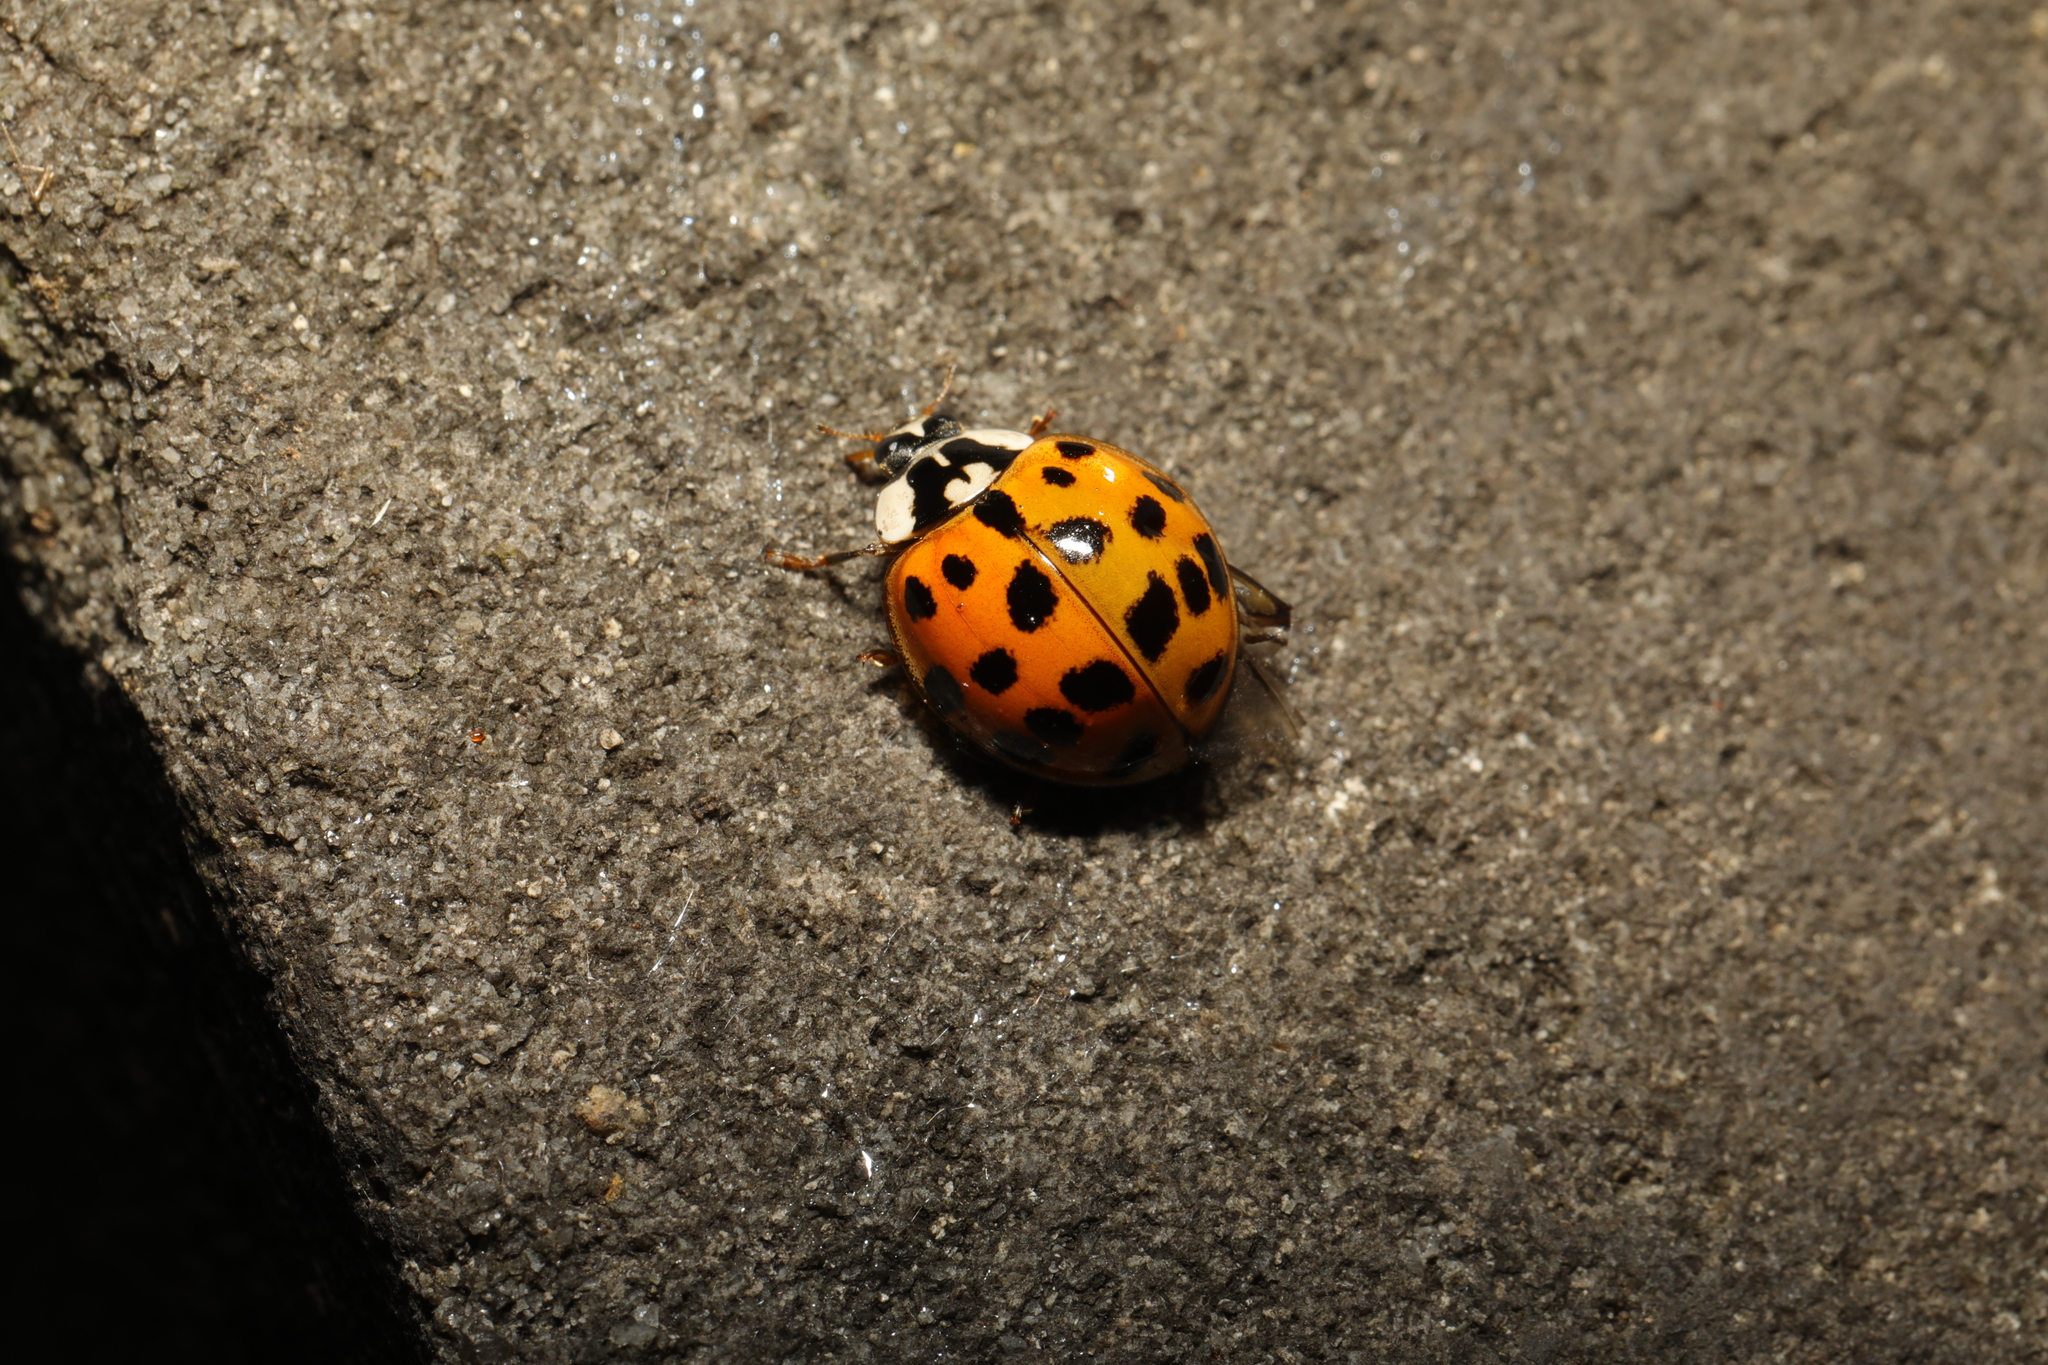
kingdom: Animalia
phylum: Arthropoda
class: Insecta
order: Coleoptera
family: Coccinellidae
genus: Harmonia
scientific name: Harmonia axyridis
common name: Harlequin ladybird
